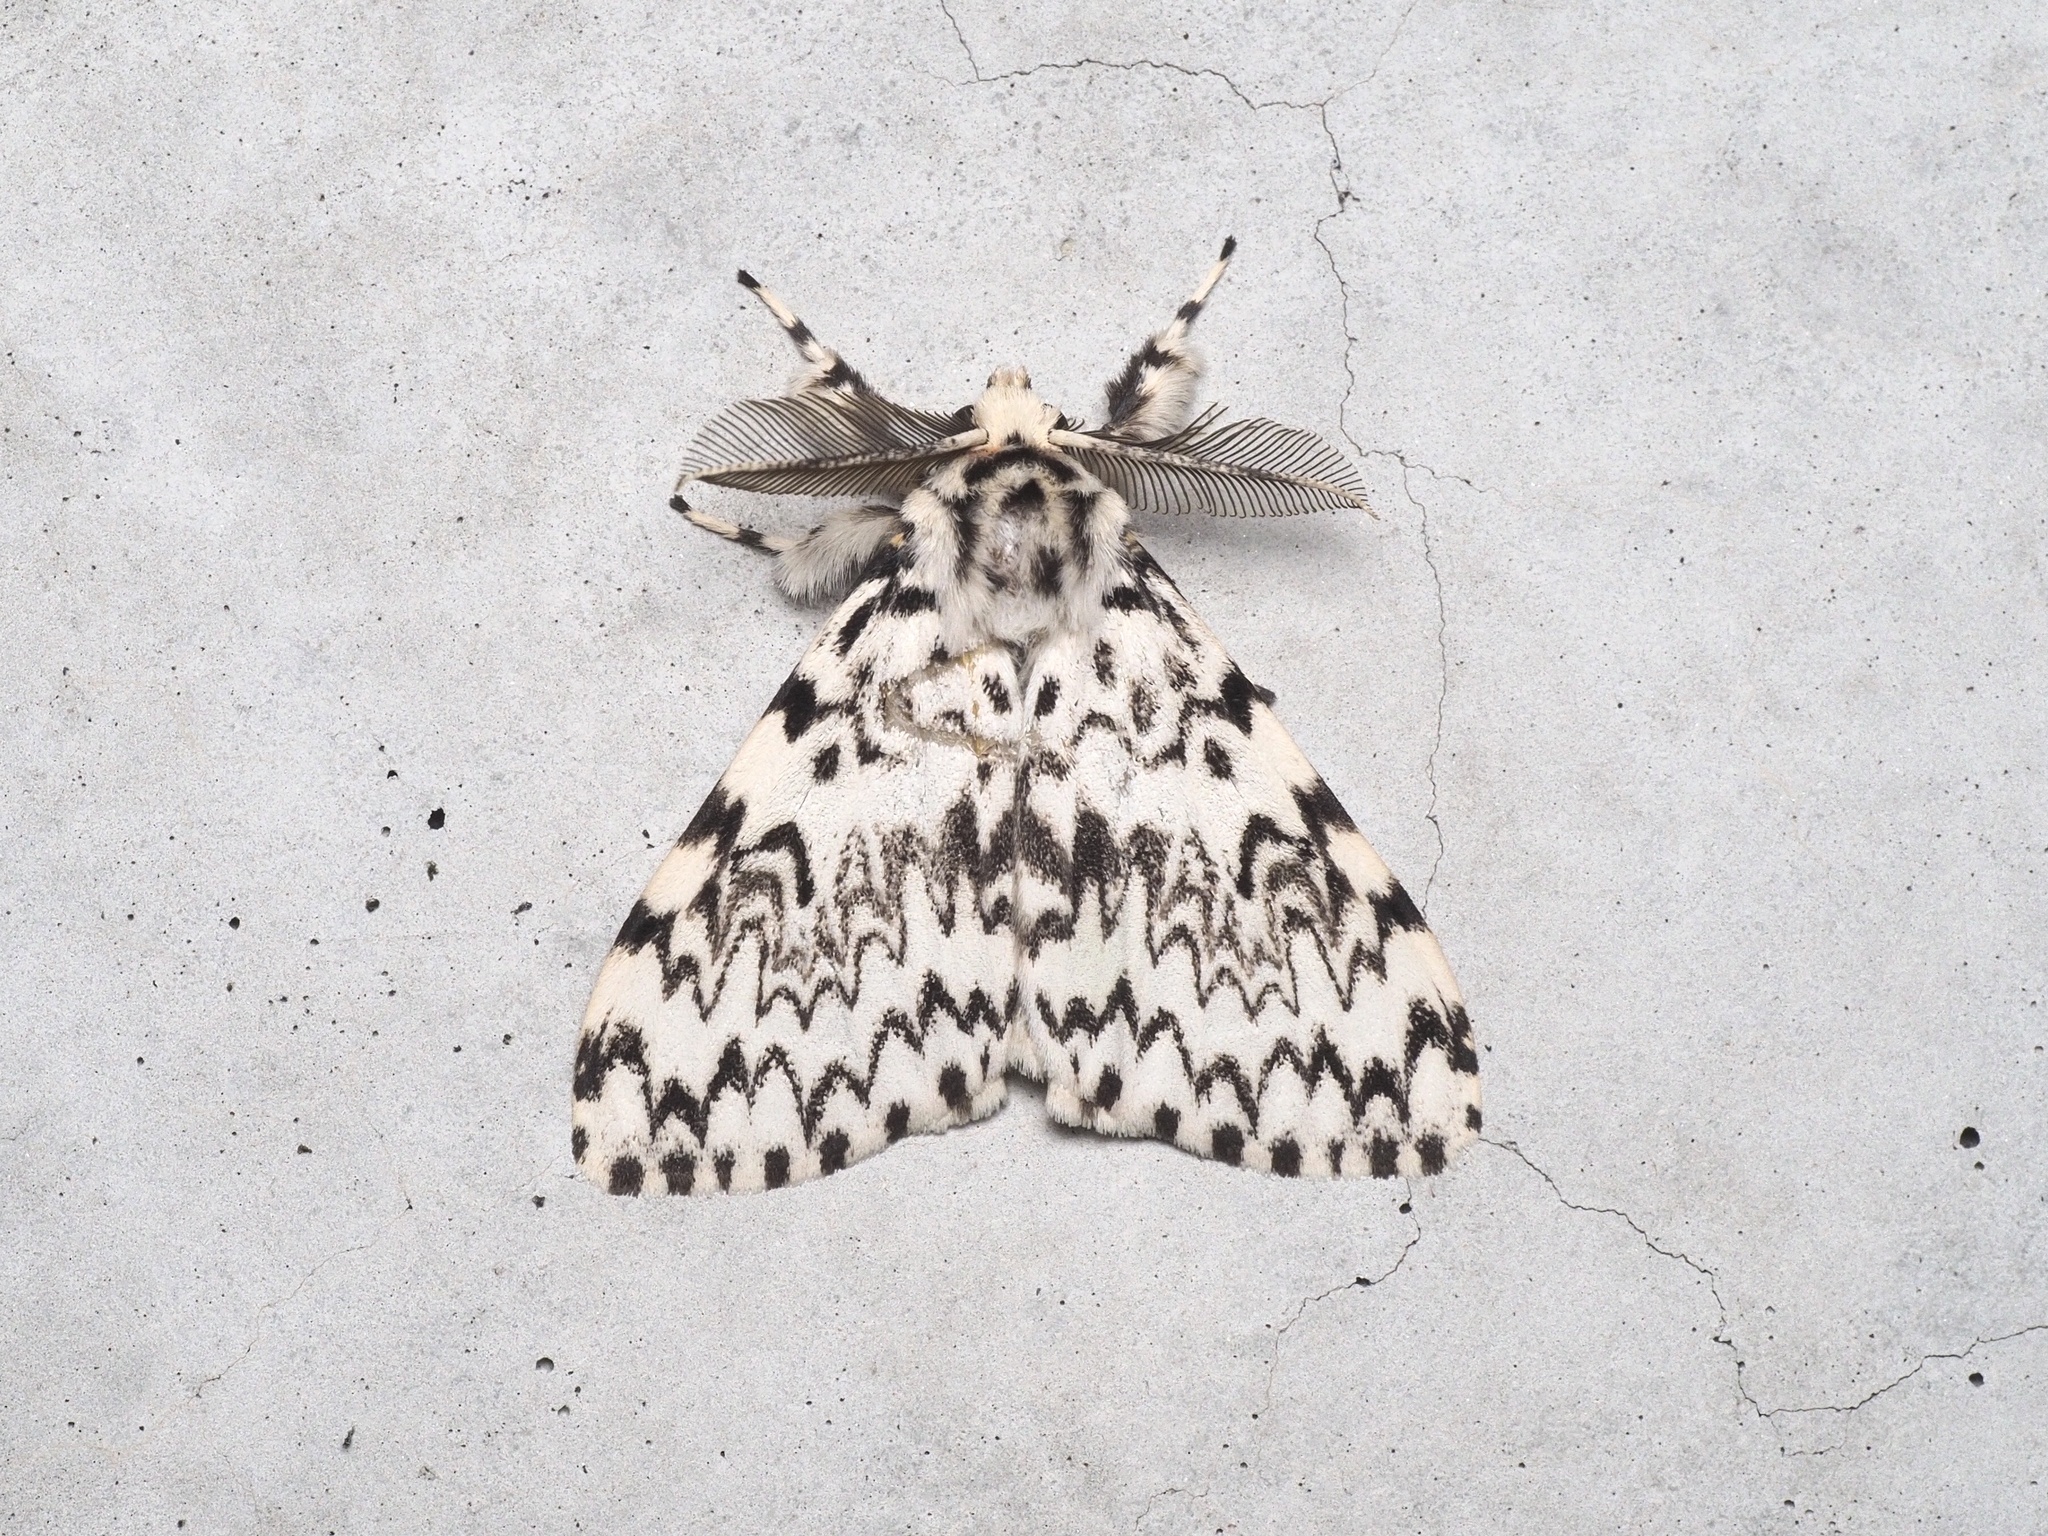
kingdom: Animalia
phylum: Arthropoda
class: Insecta
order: Lepidoptera
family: Erebidae
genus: Lymantria
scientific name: Lymantria monacha
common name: Black arches
